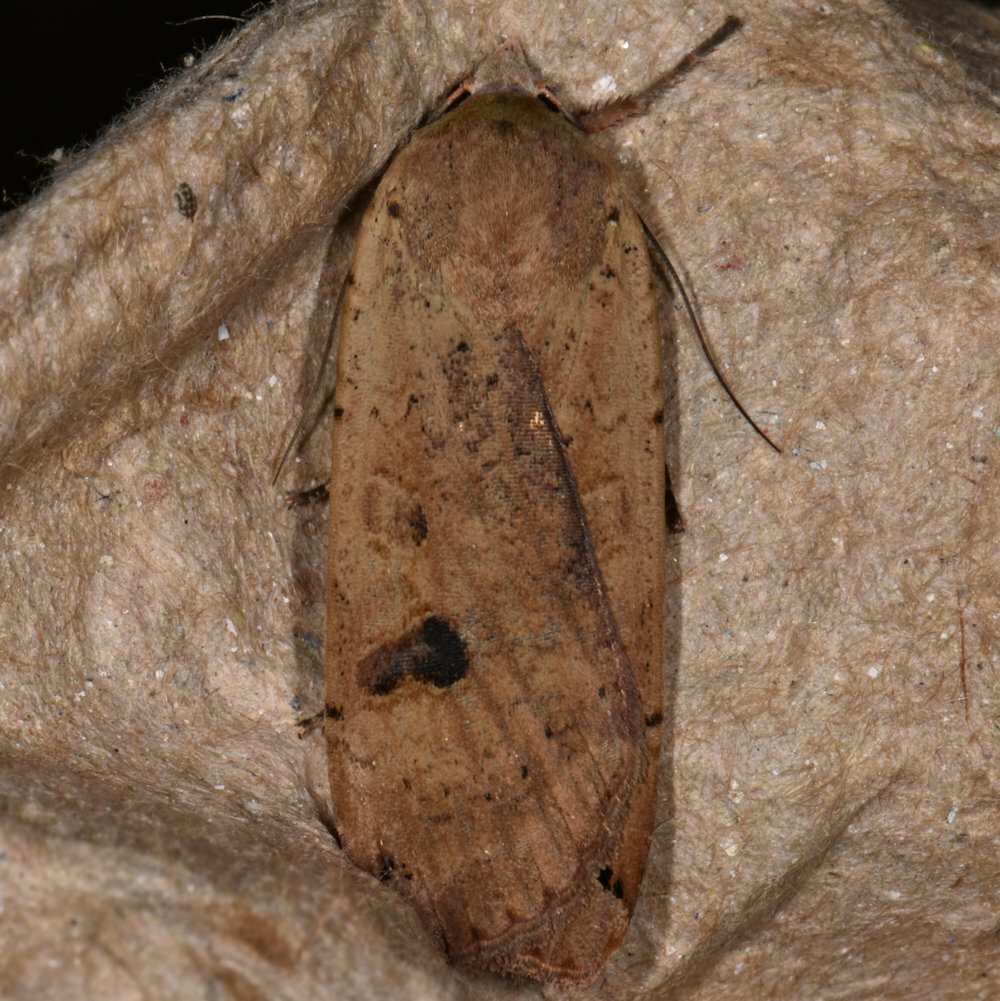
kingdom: Animalia
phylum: Arthropoda
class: Insecta
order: Lepidoptera
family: Noctuidae
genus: Noctua
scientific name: Noctua pronuba
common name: Large yellow underwing
